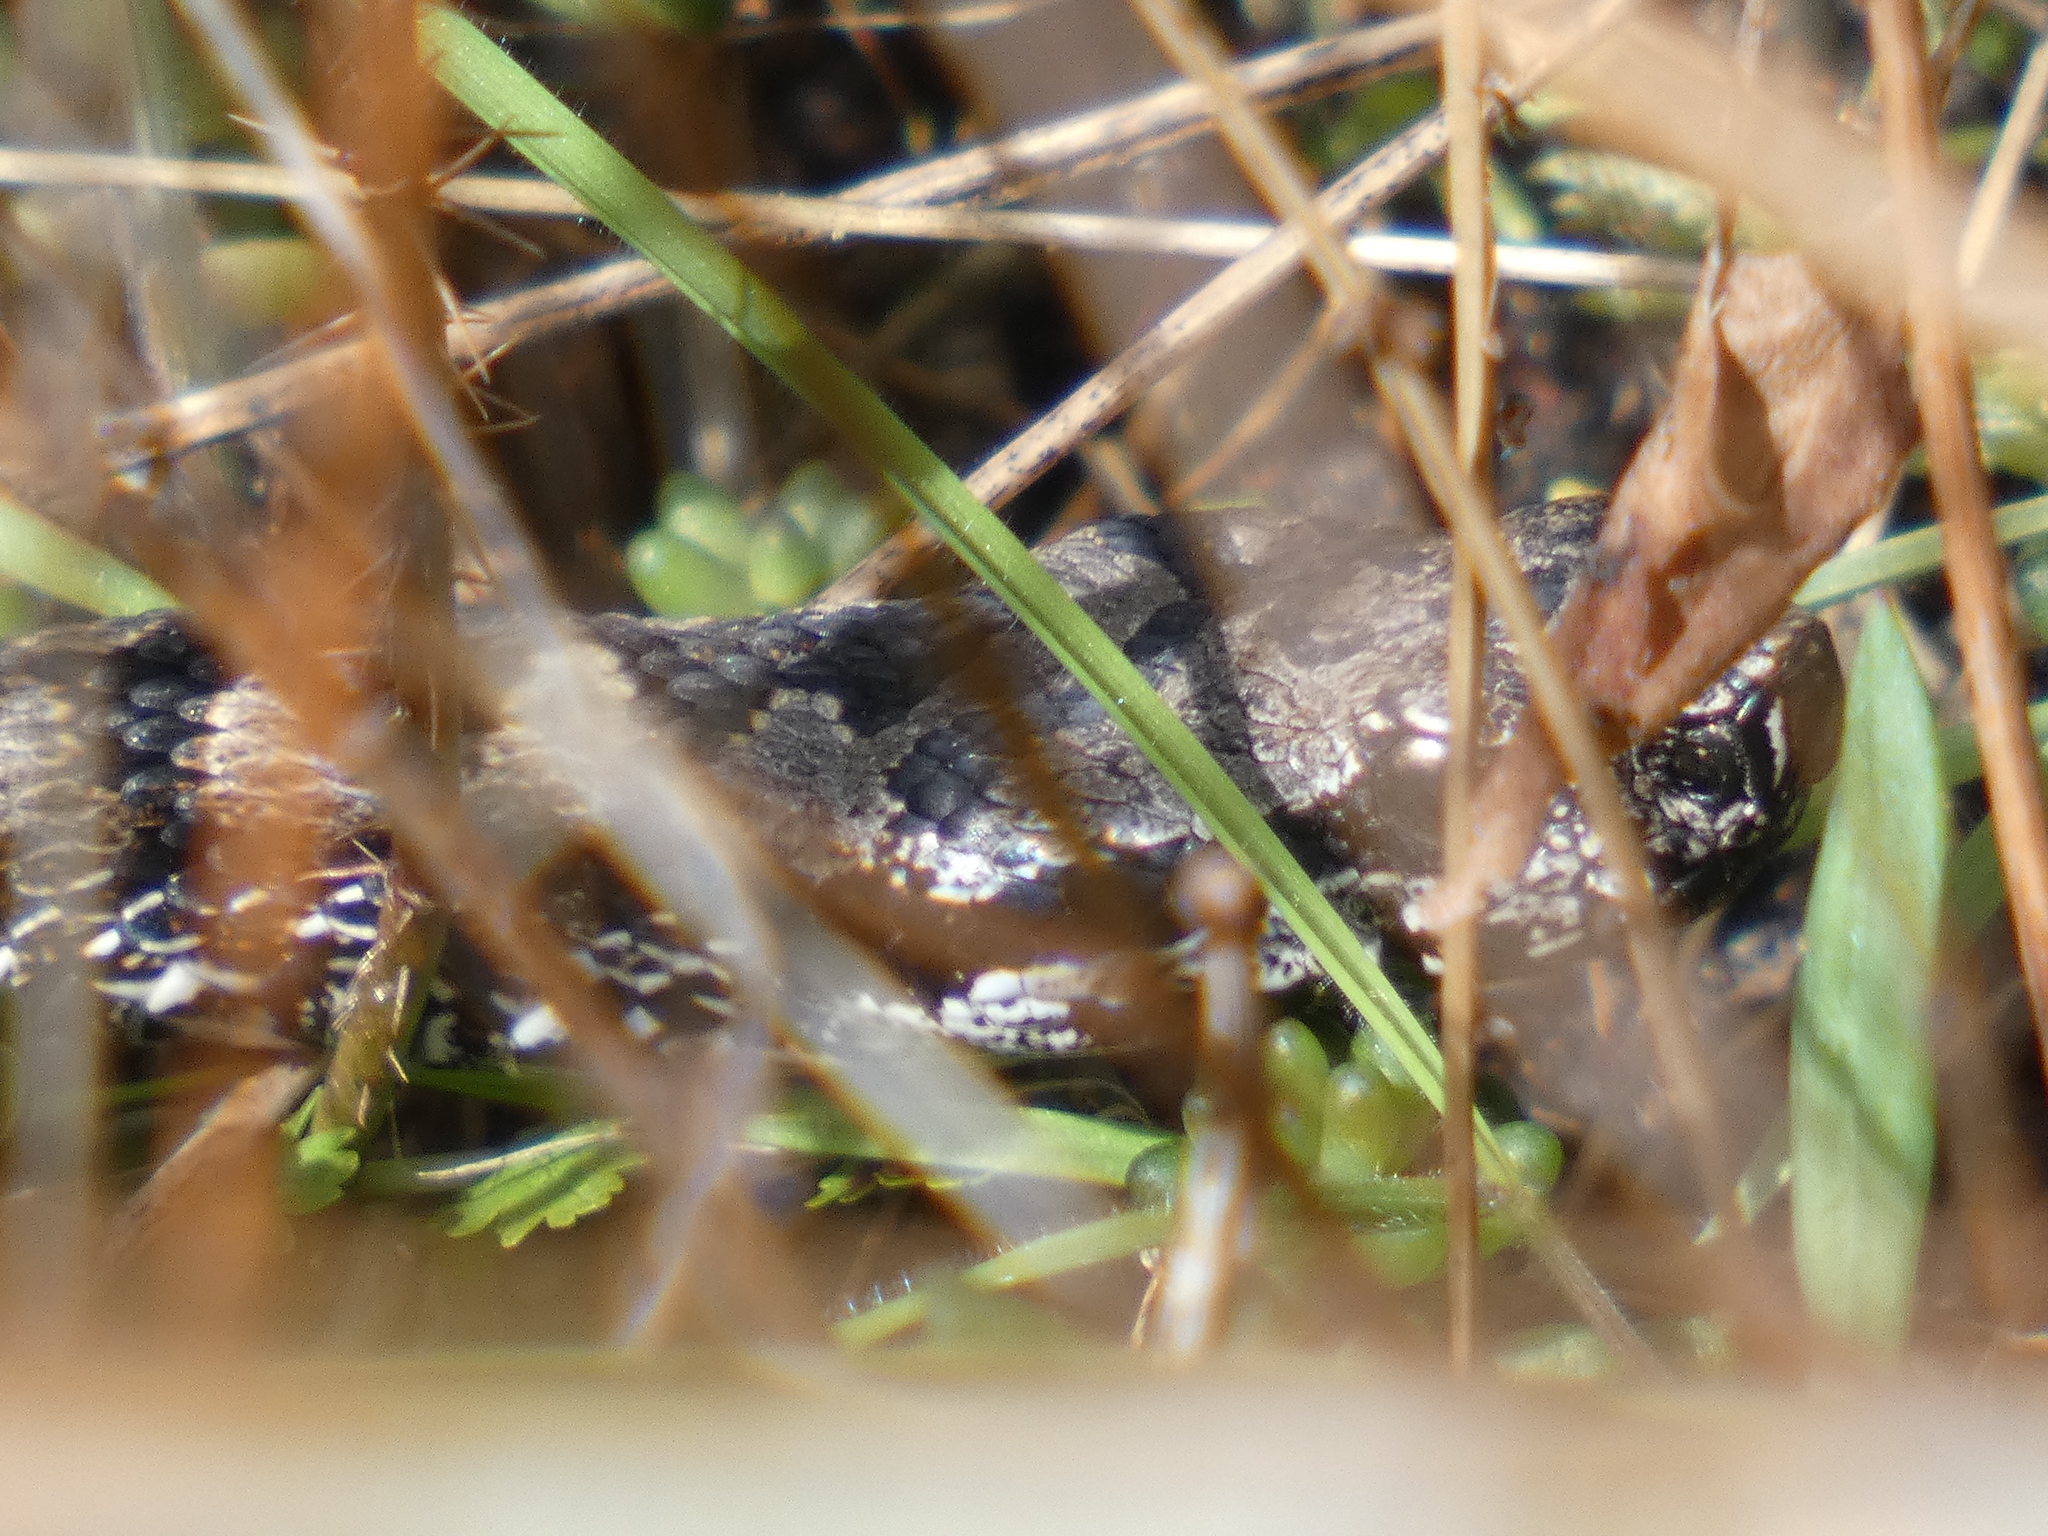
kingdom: Animalia
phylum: Chordata
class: Squamata
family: Viperidae
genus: Vipera
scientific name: Vipera aspis
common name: Asp viper
